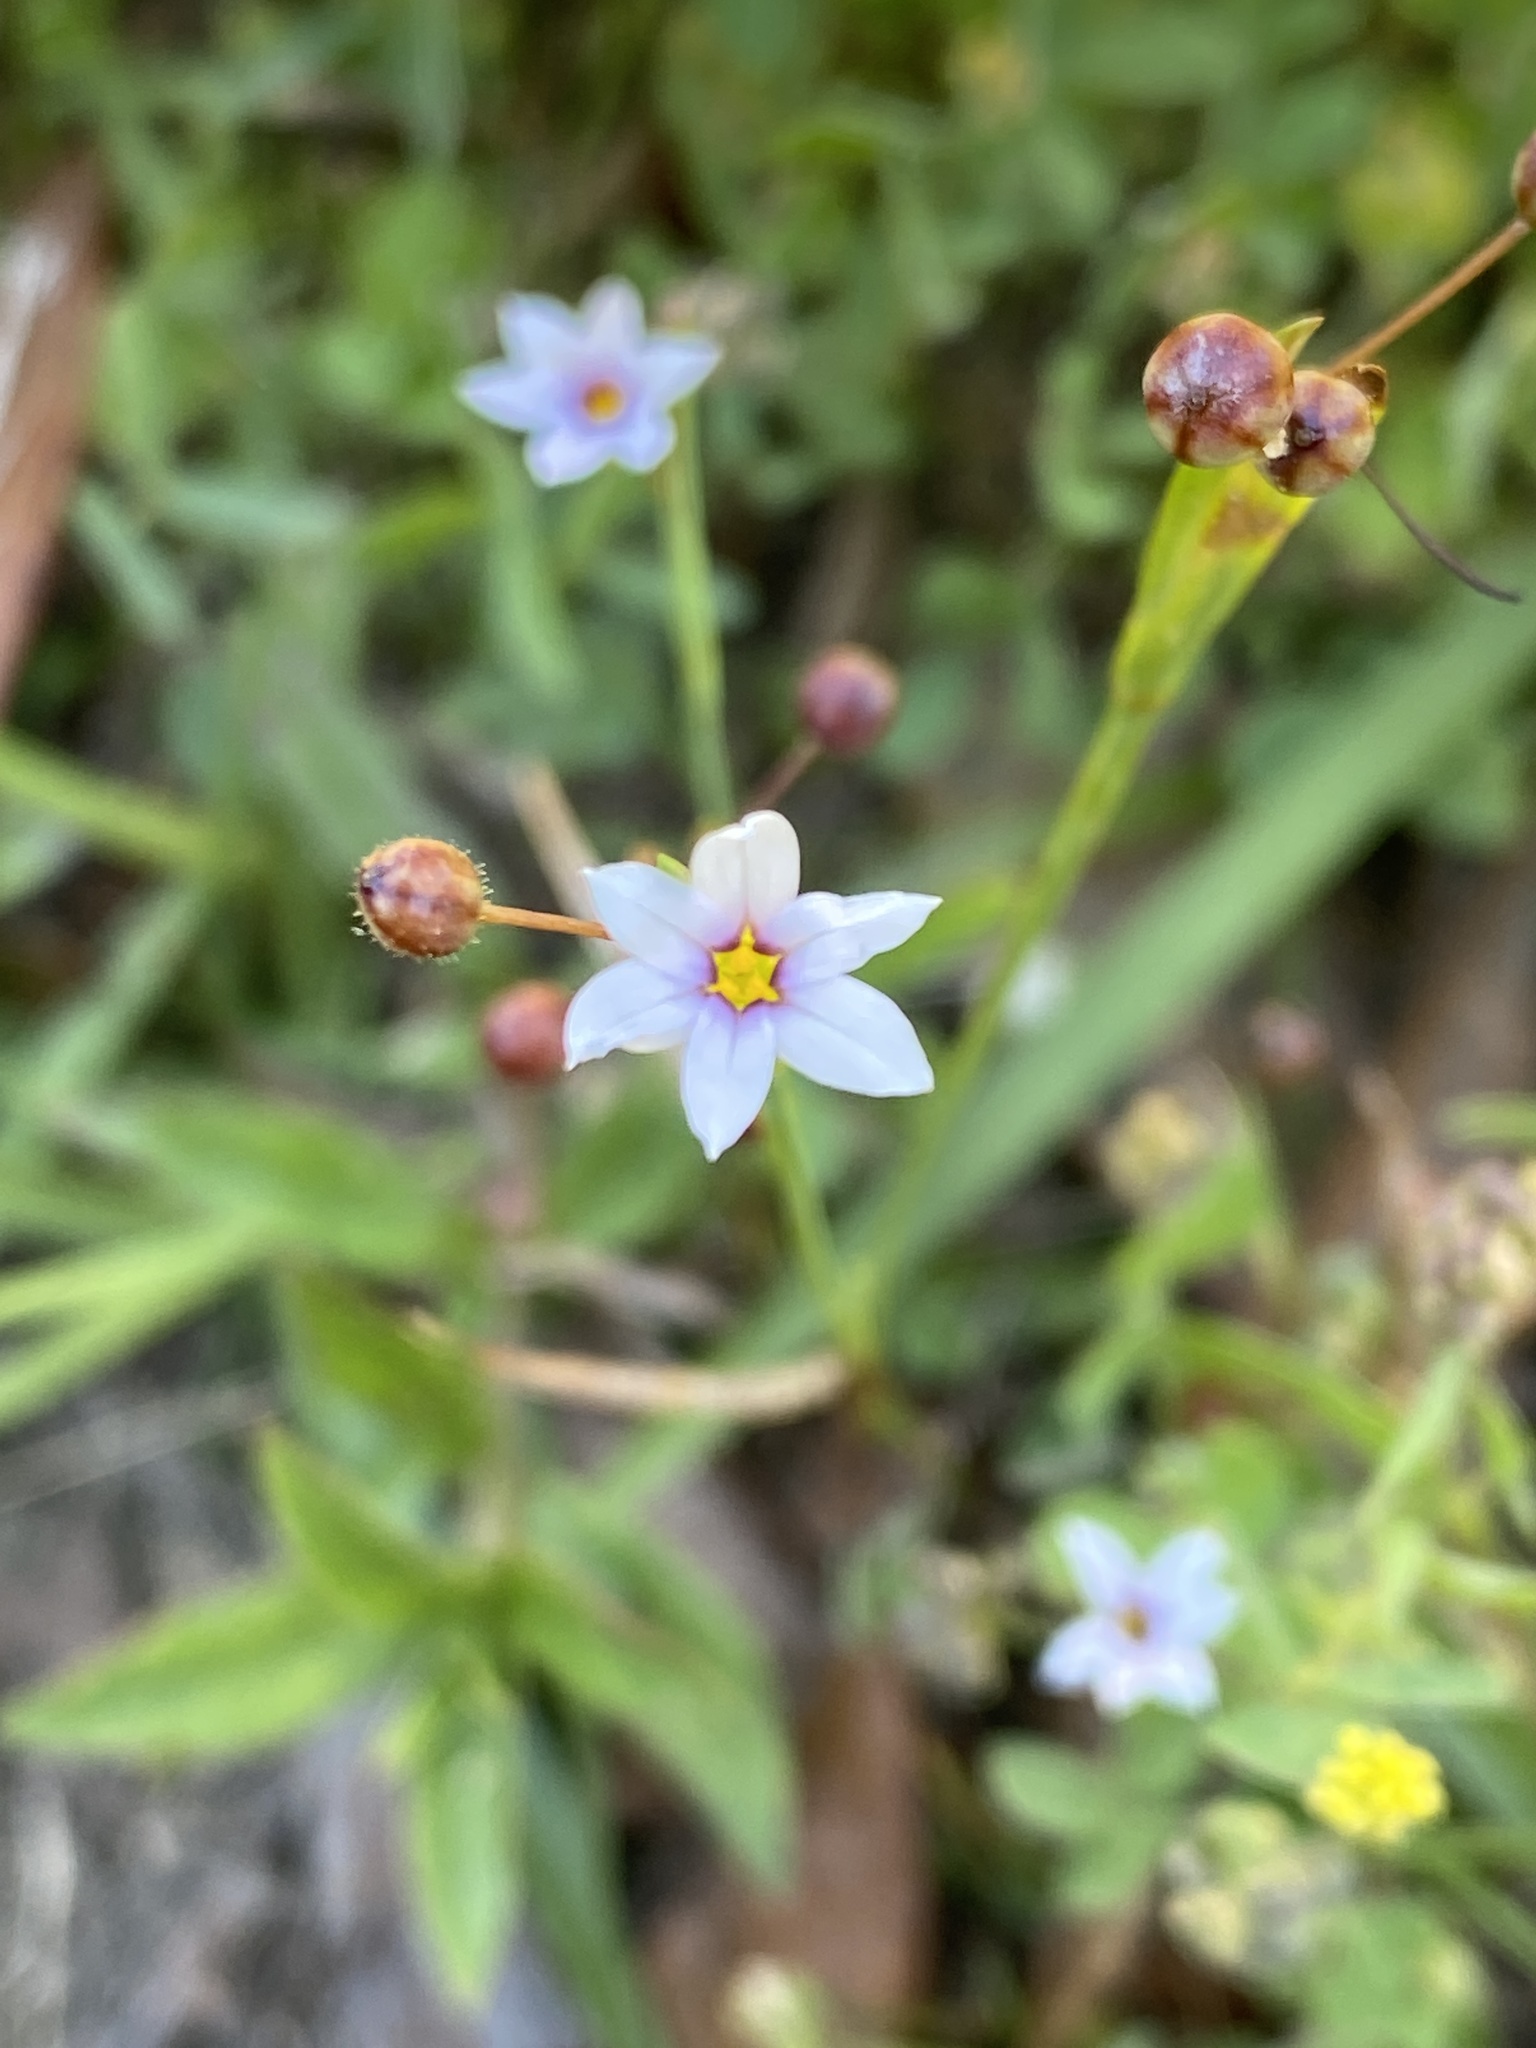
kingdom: Plantae
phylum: Tracheophyta
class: Liliopsida
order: Asparagales
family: Iridaceae
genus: Sisyrinchium
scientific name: Sisyrinchium micranthum
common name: Bermuda pigroot
